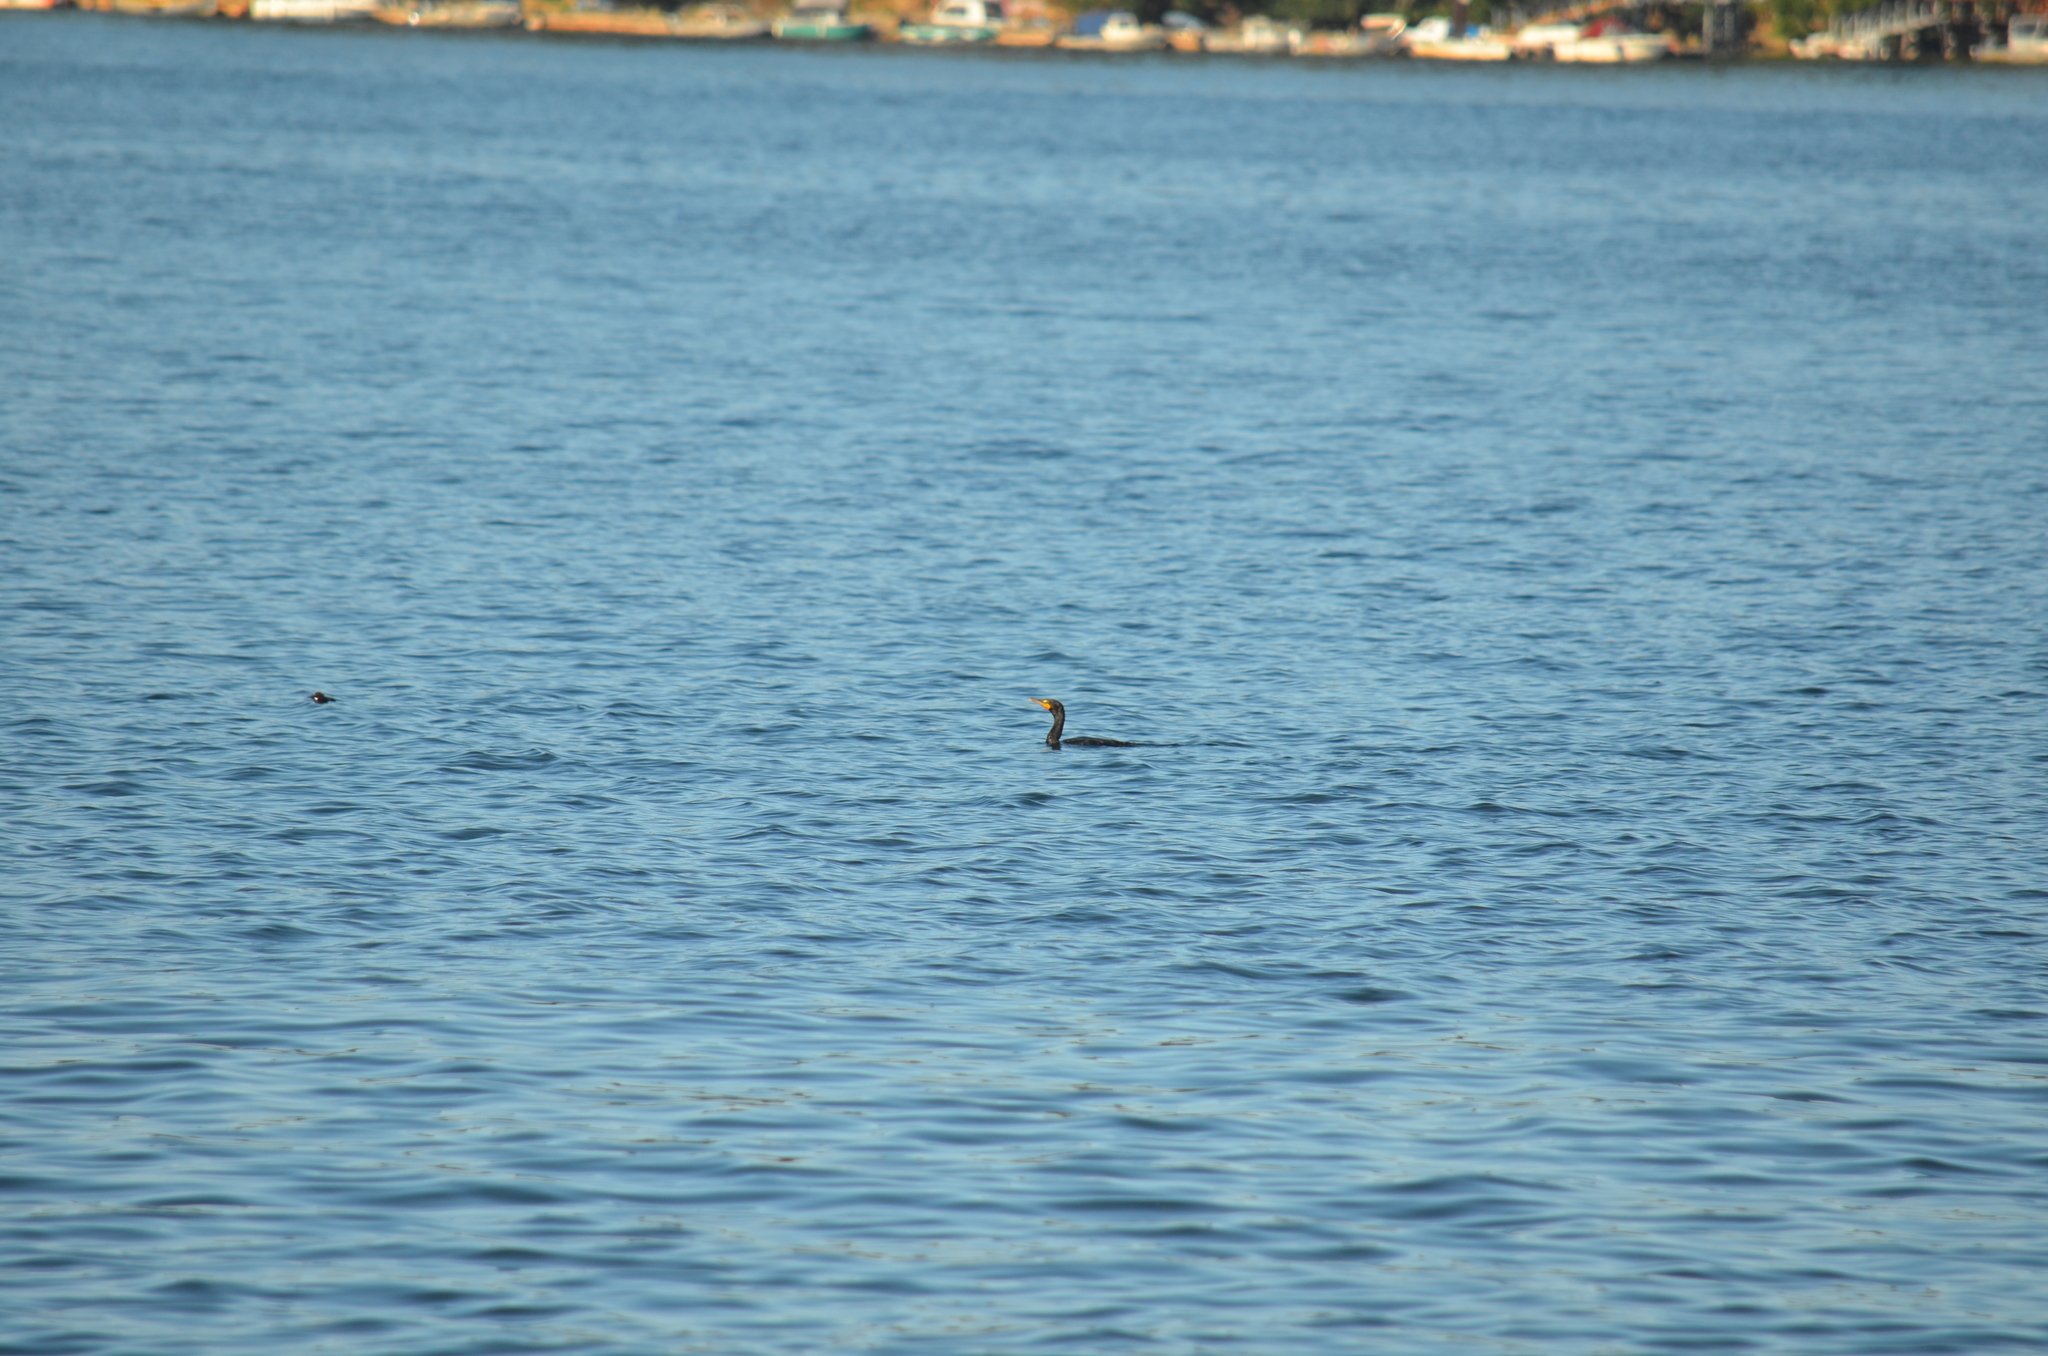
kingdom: Animalia
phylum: Chordata
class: Aves
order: Suliformes
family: Phalacrocoracidae
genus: Phalacrocorax
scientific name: Phalacrocorax auritus
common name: Double-crested cormorant
